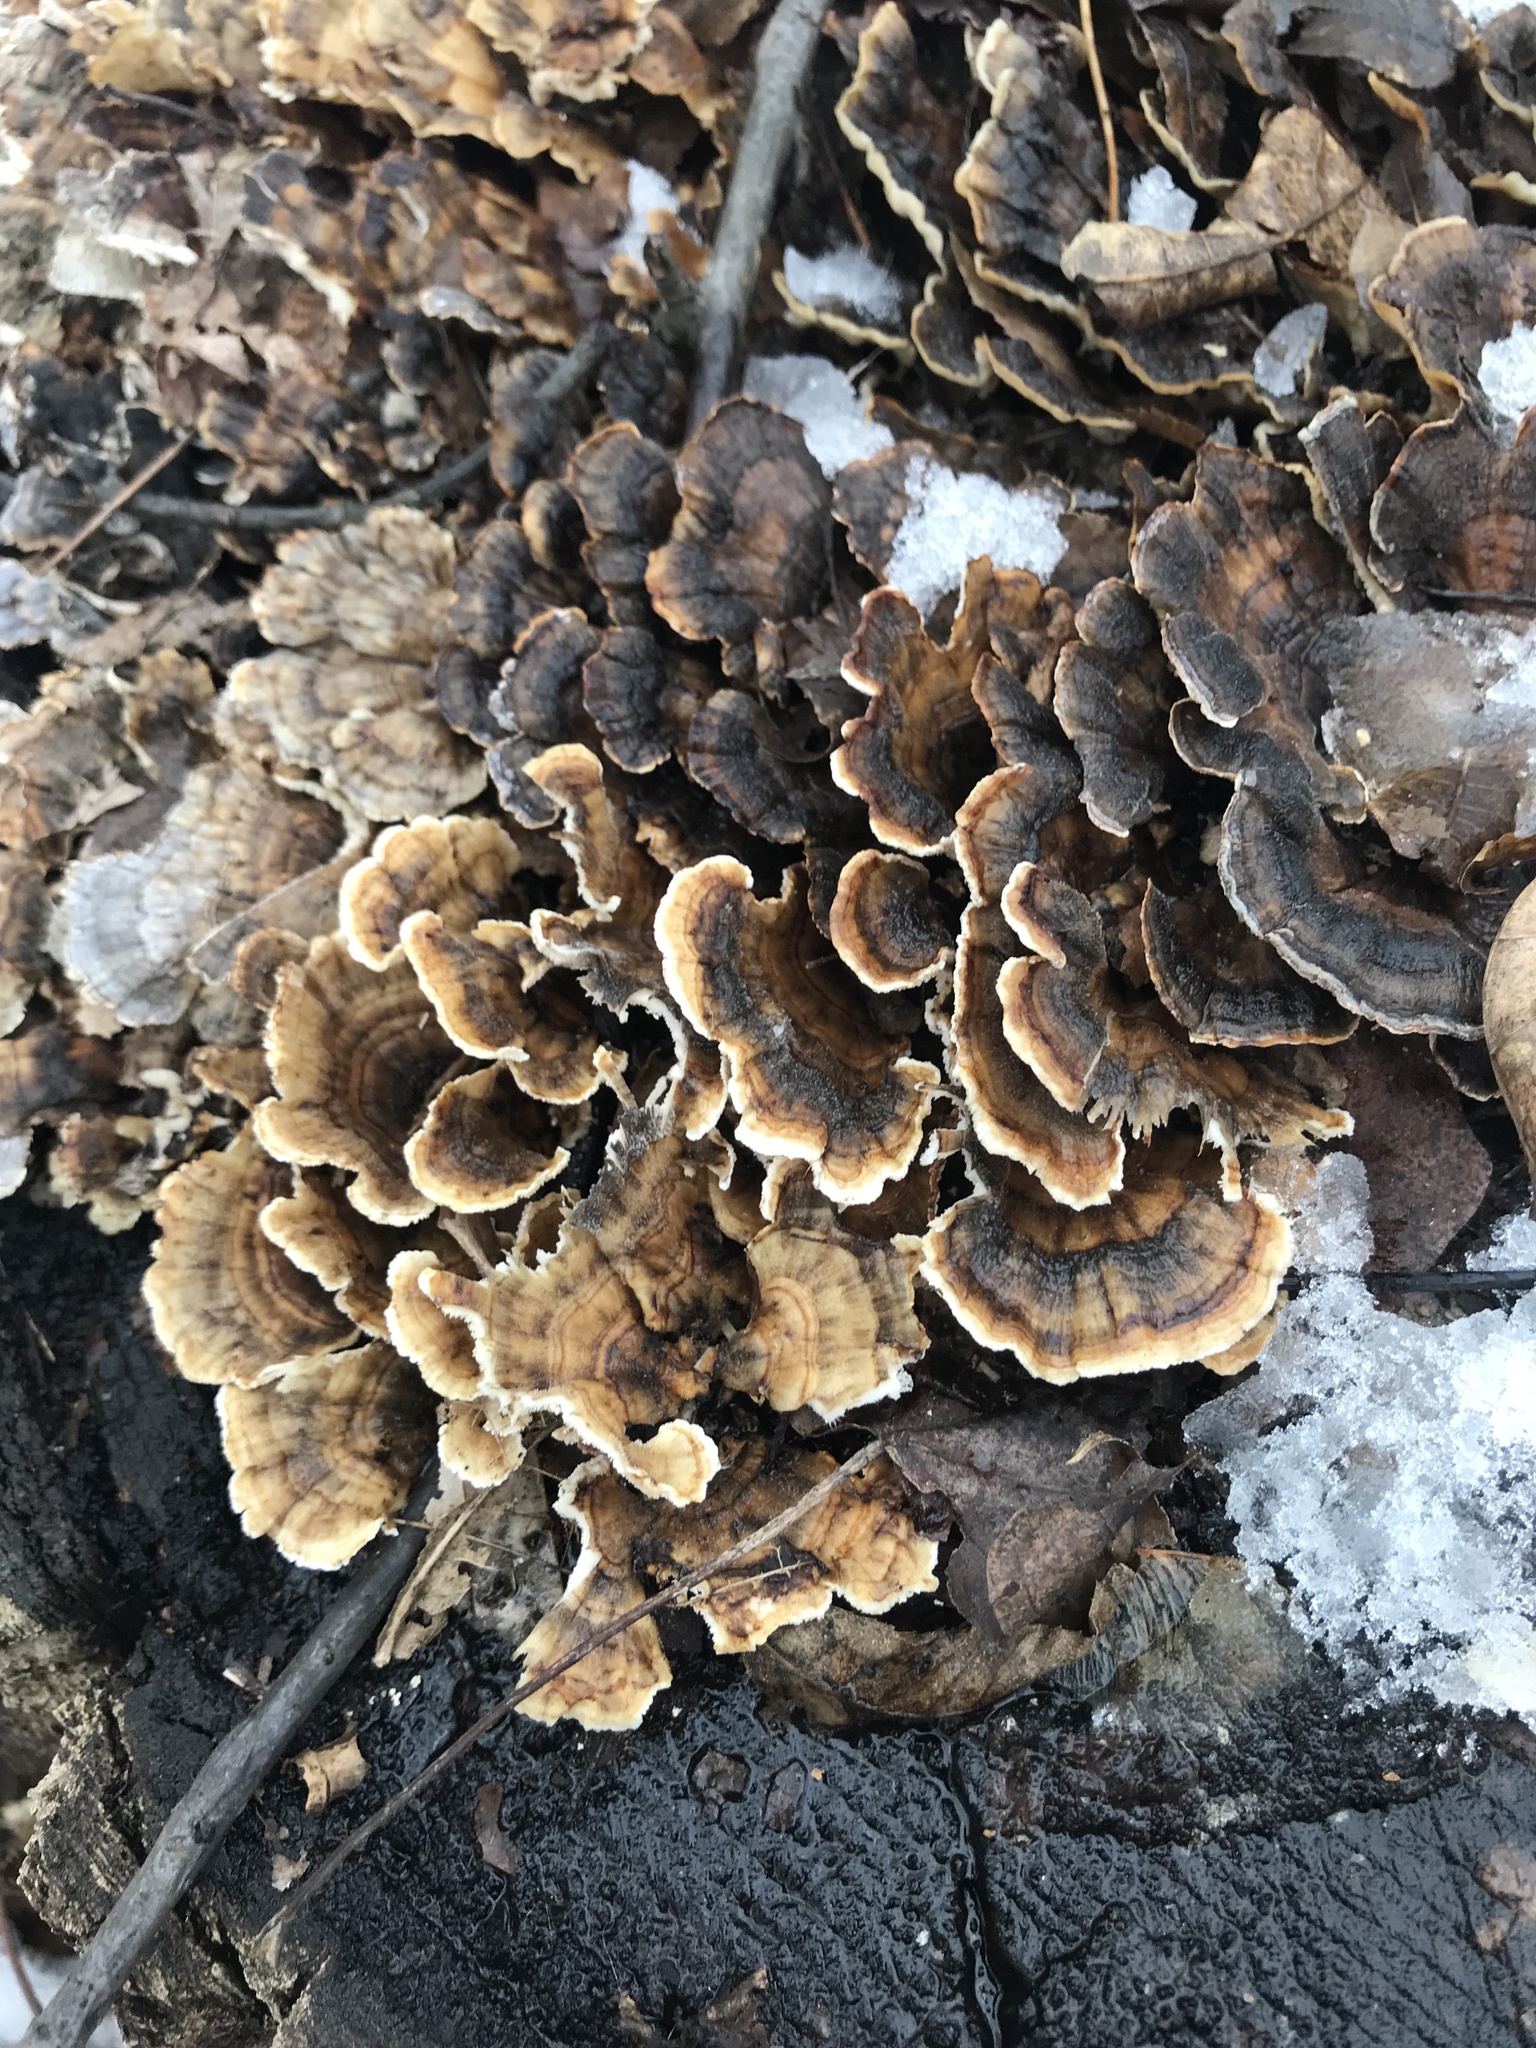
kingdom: Fungi
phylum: Basidiomycota
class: Agaricomycetes
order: Polyporales
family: Polyporaceae
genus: Trametes
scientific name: Trametes versicolor
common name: Turkeytail
